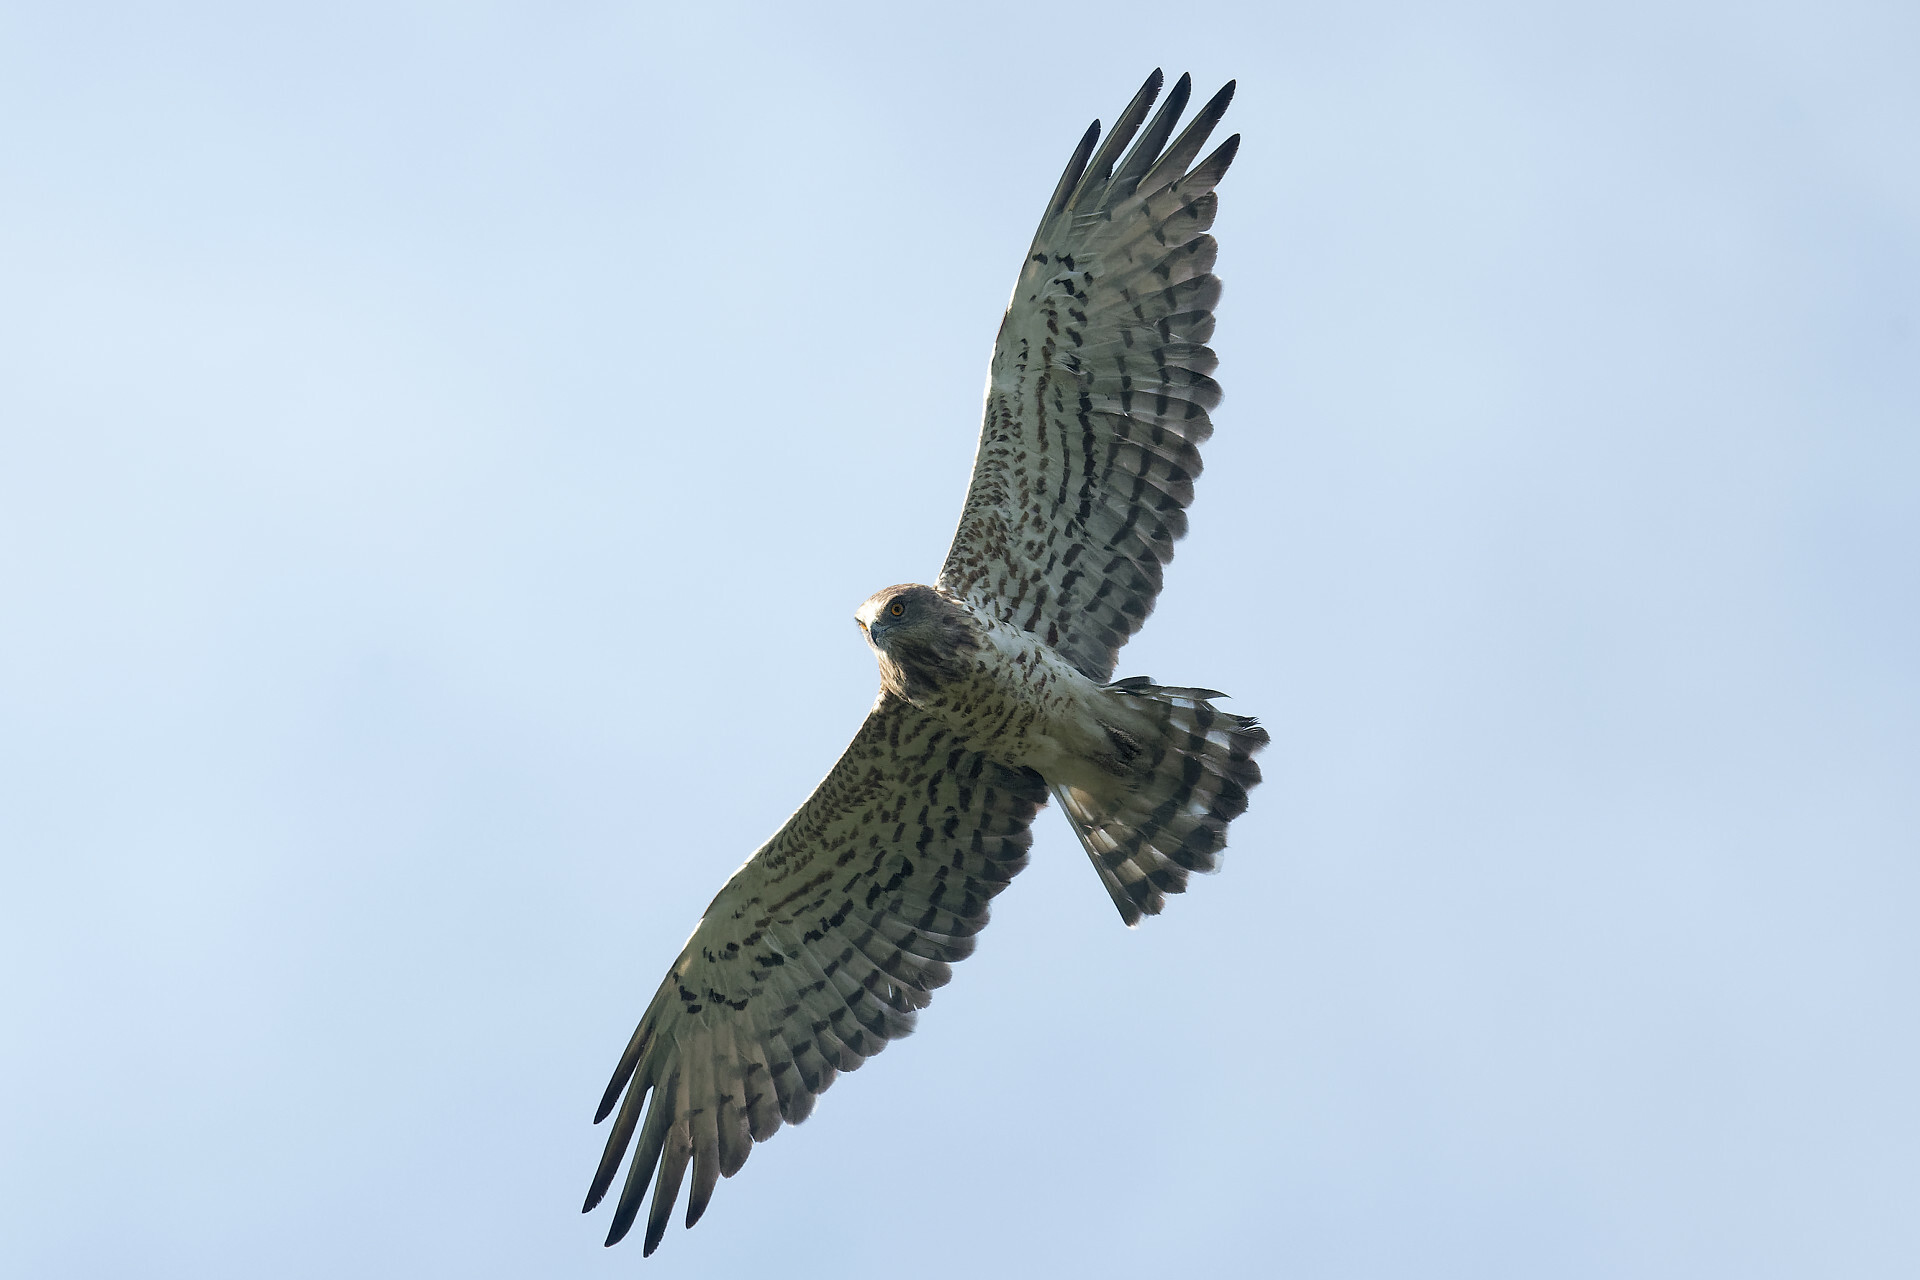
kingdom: Animalia
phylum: Chordata
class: Aves
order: Accipitriformes
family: Accipitridae
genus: Circaetus
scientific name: Circaetus gallicus
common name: Short-toed snake eagle
